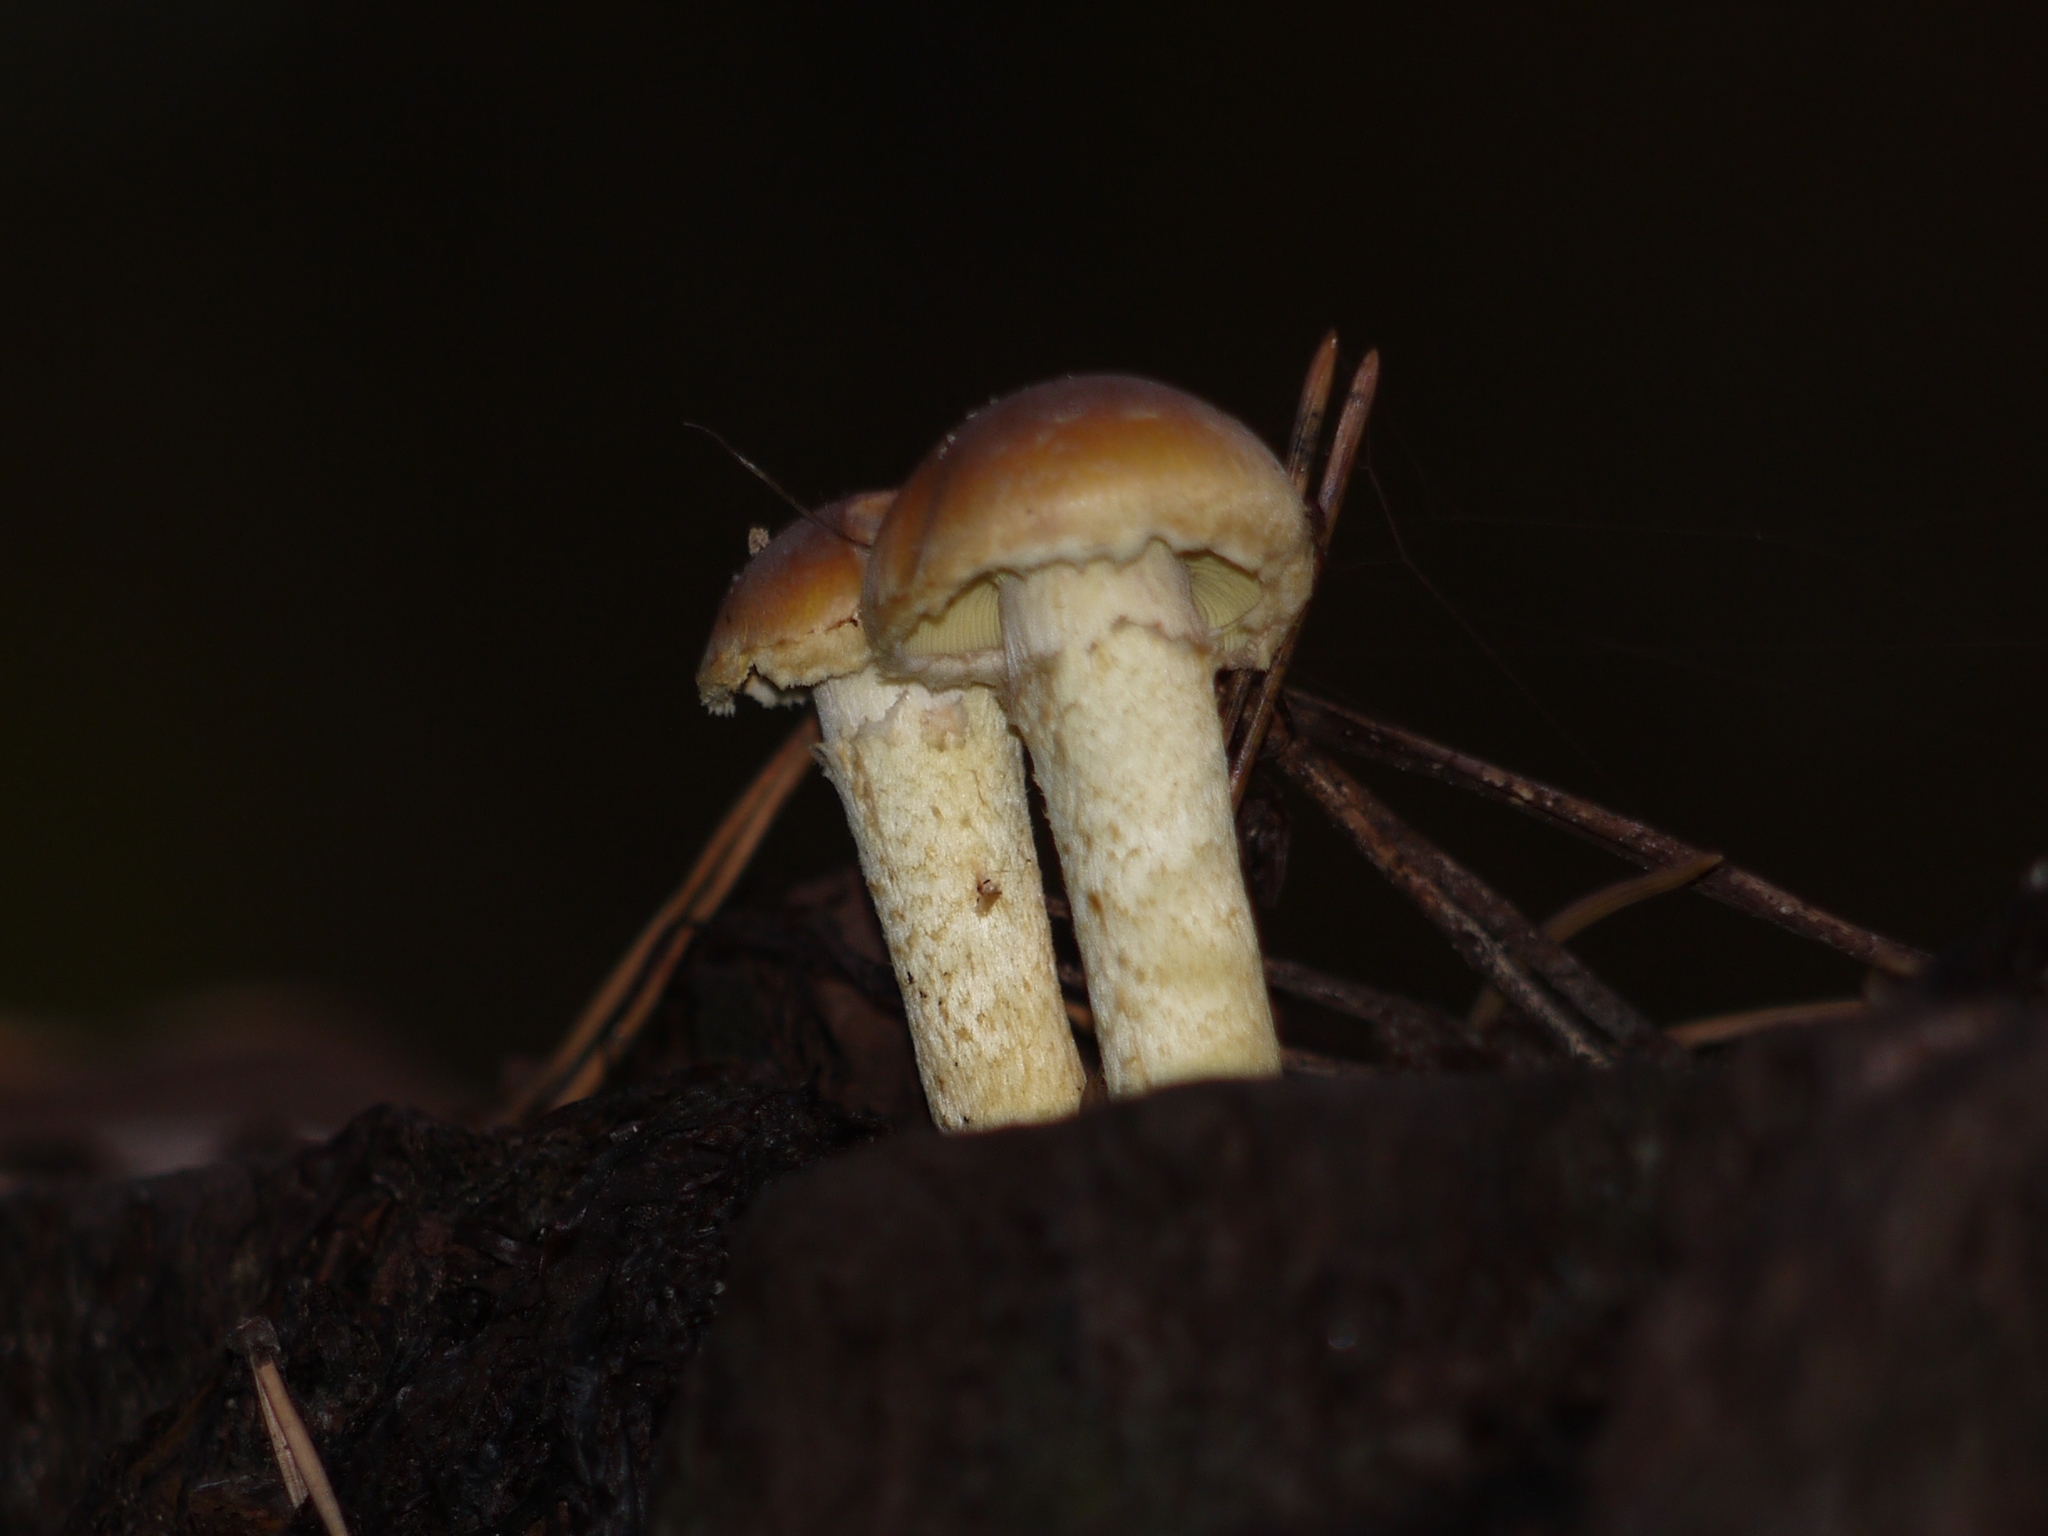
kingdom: Fungi
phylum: Basidiomycota
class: Agaricomycetes
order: Agaricales
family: Strophariaceae
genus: Hypholoma
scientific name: Hypholoma fasciculare
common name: Sulphur tuft
